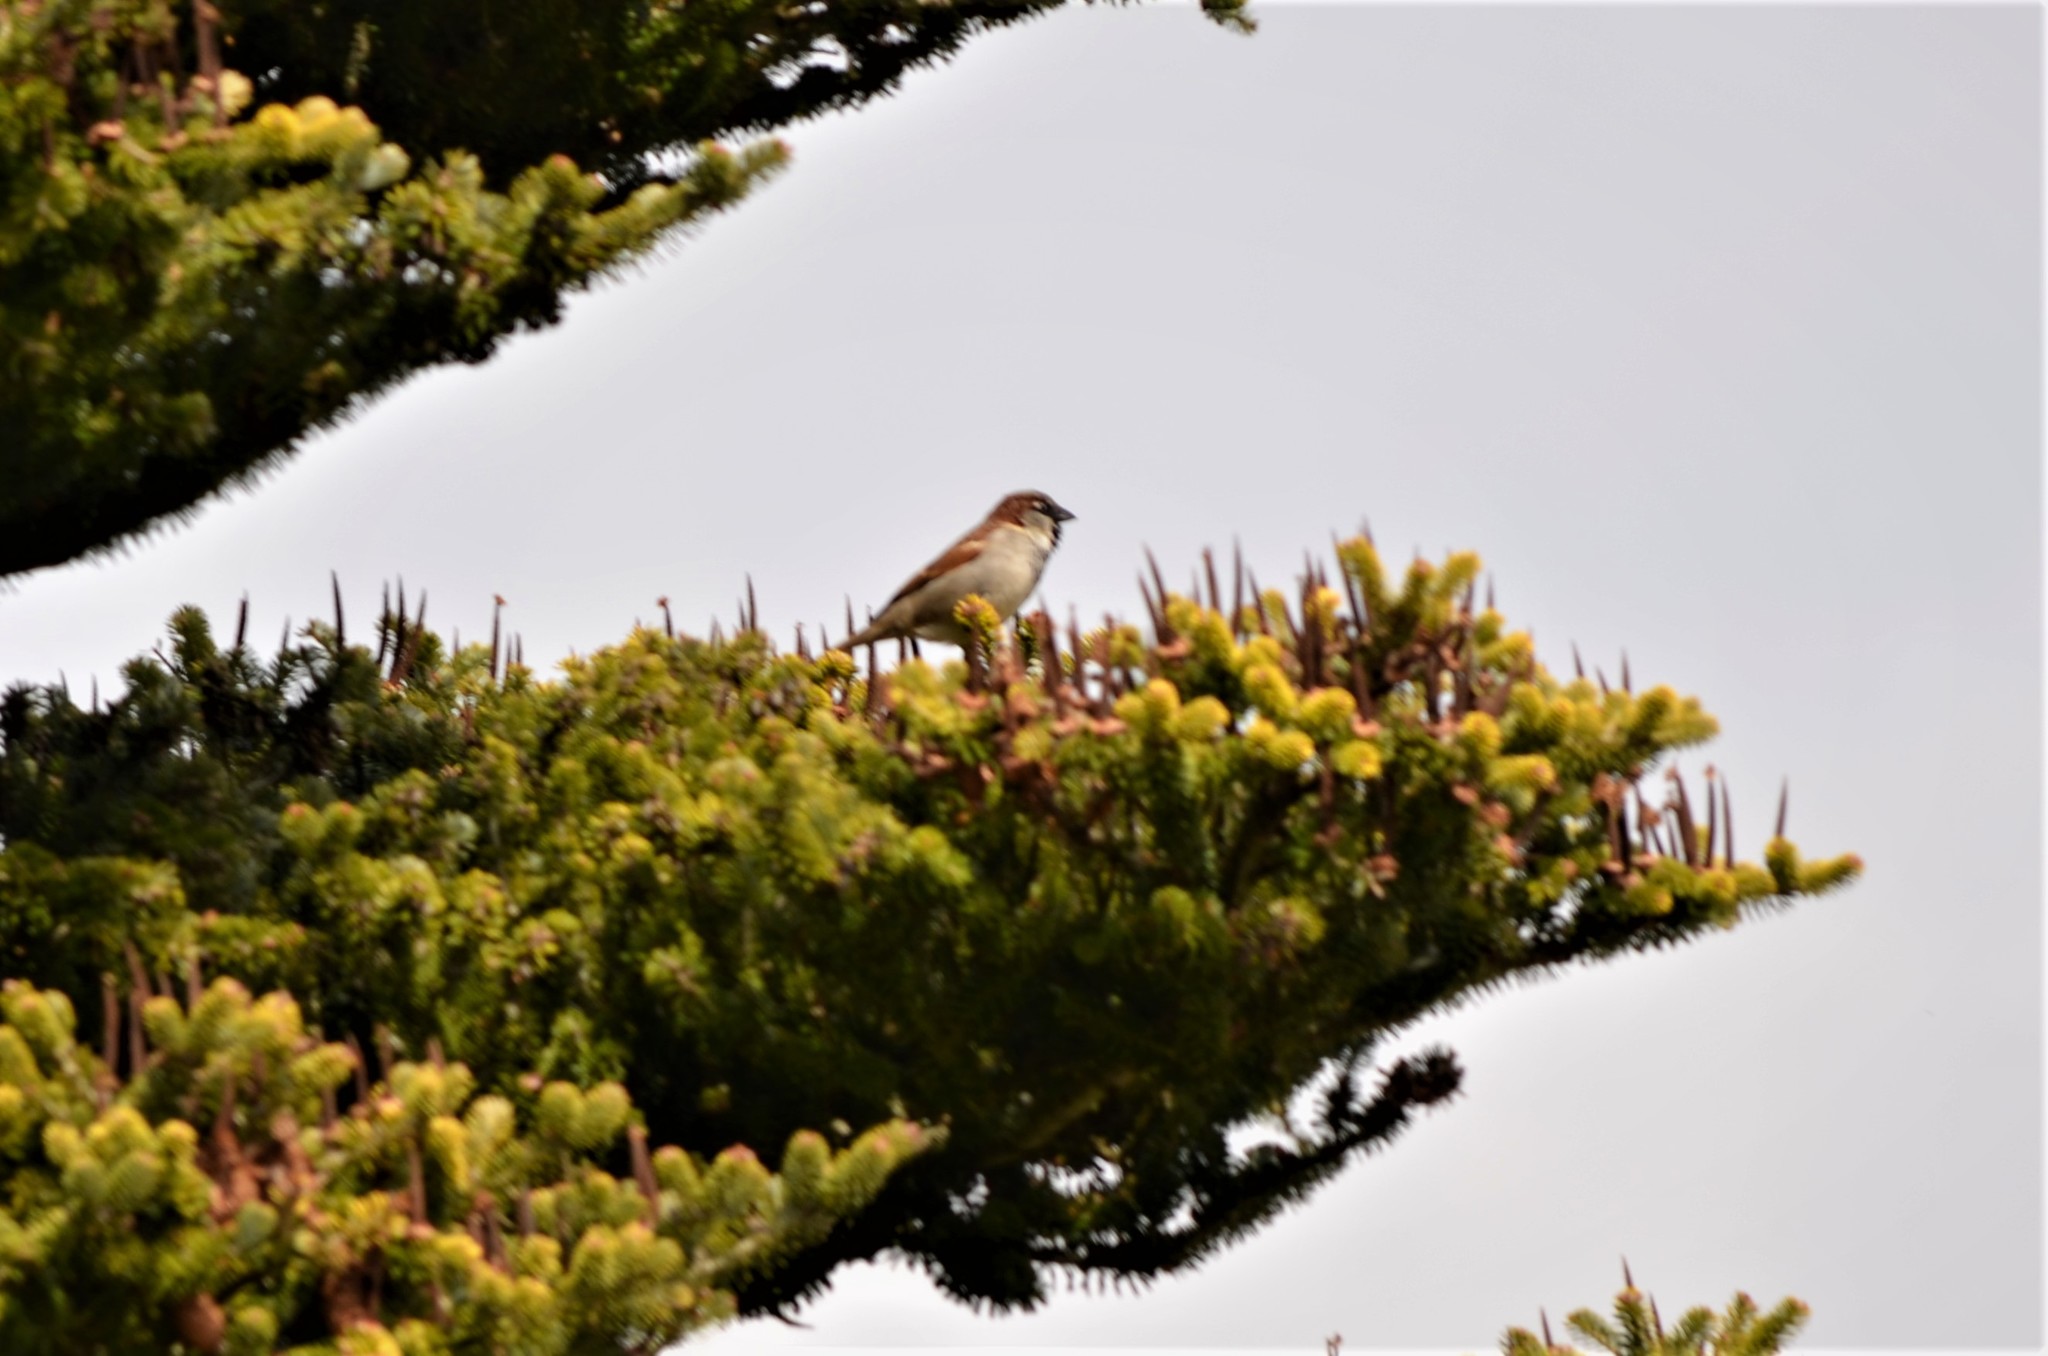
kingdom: Animalia
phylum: Chordata
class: Aves
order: Passeriformes
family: Passeridae
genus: Passer
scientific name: Passer domesticus
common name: House sparrow
